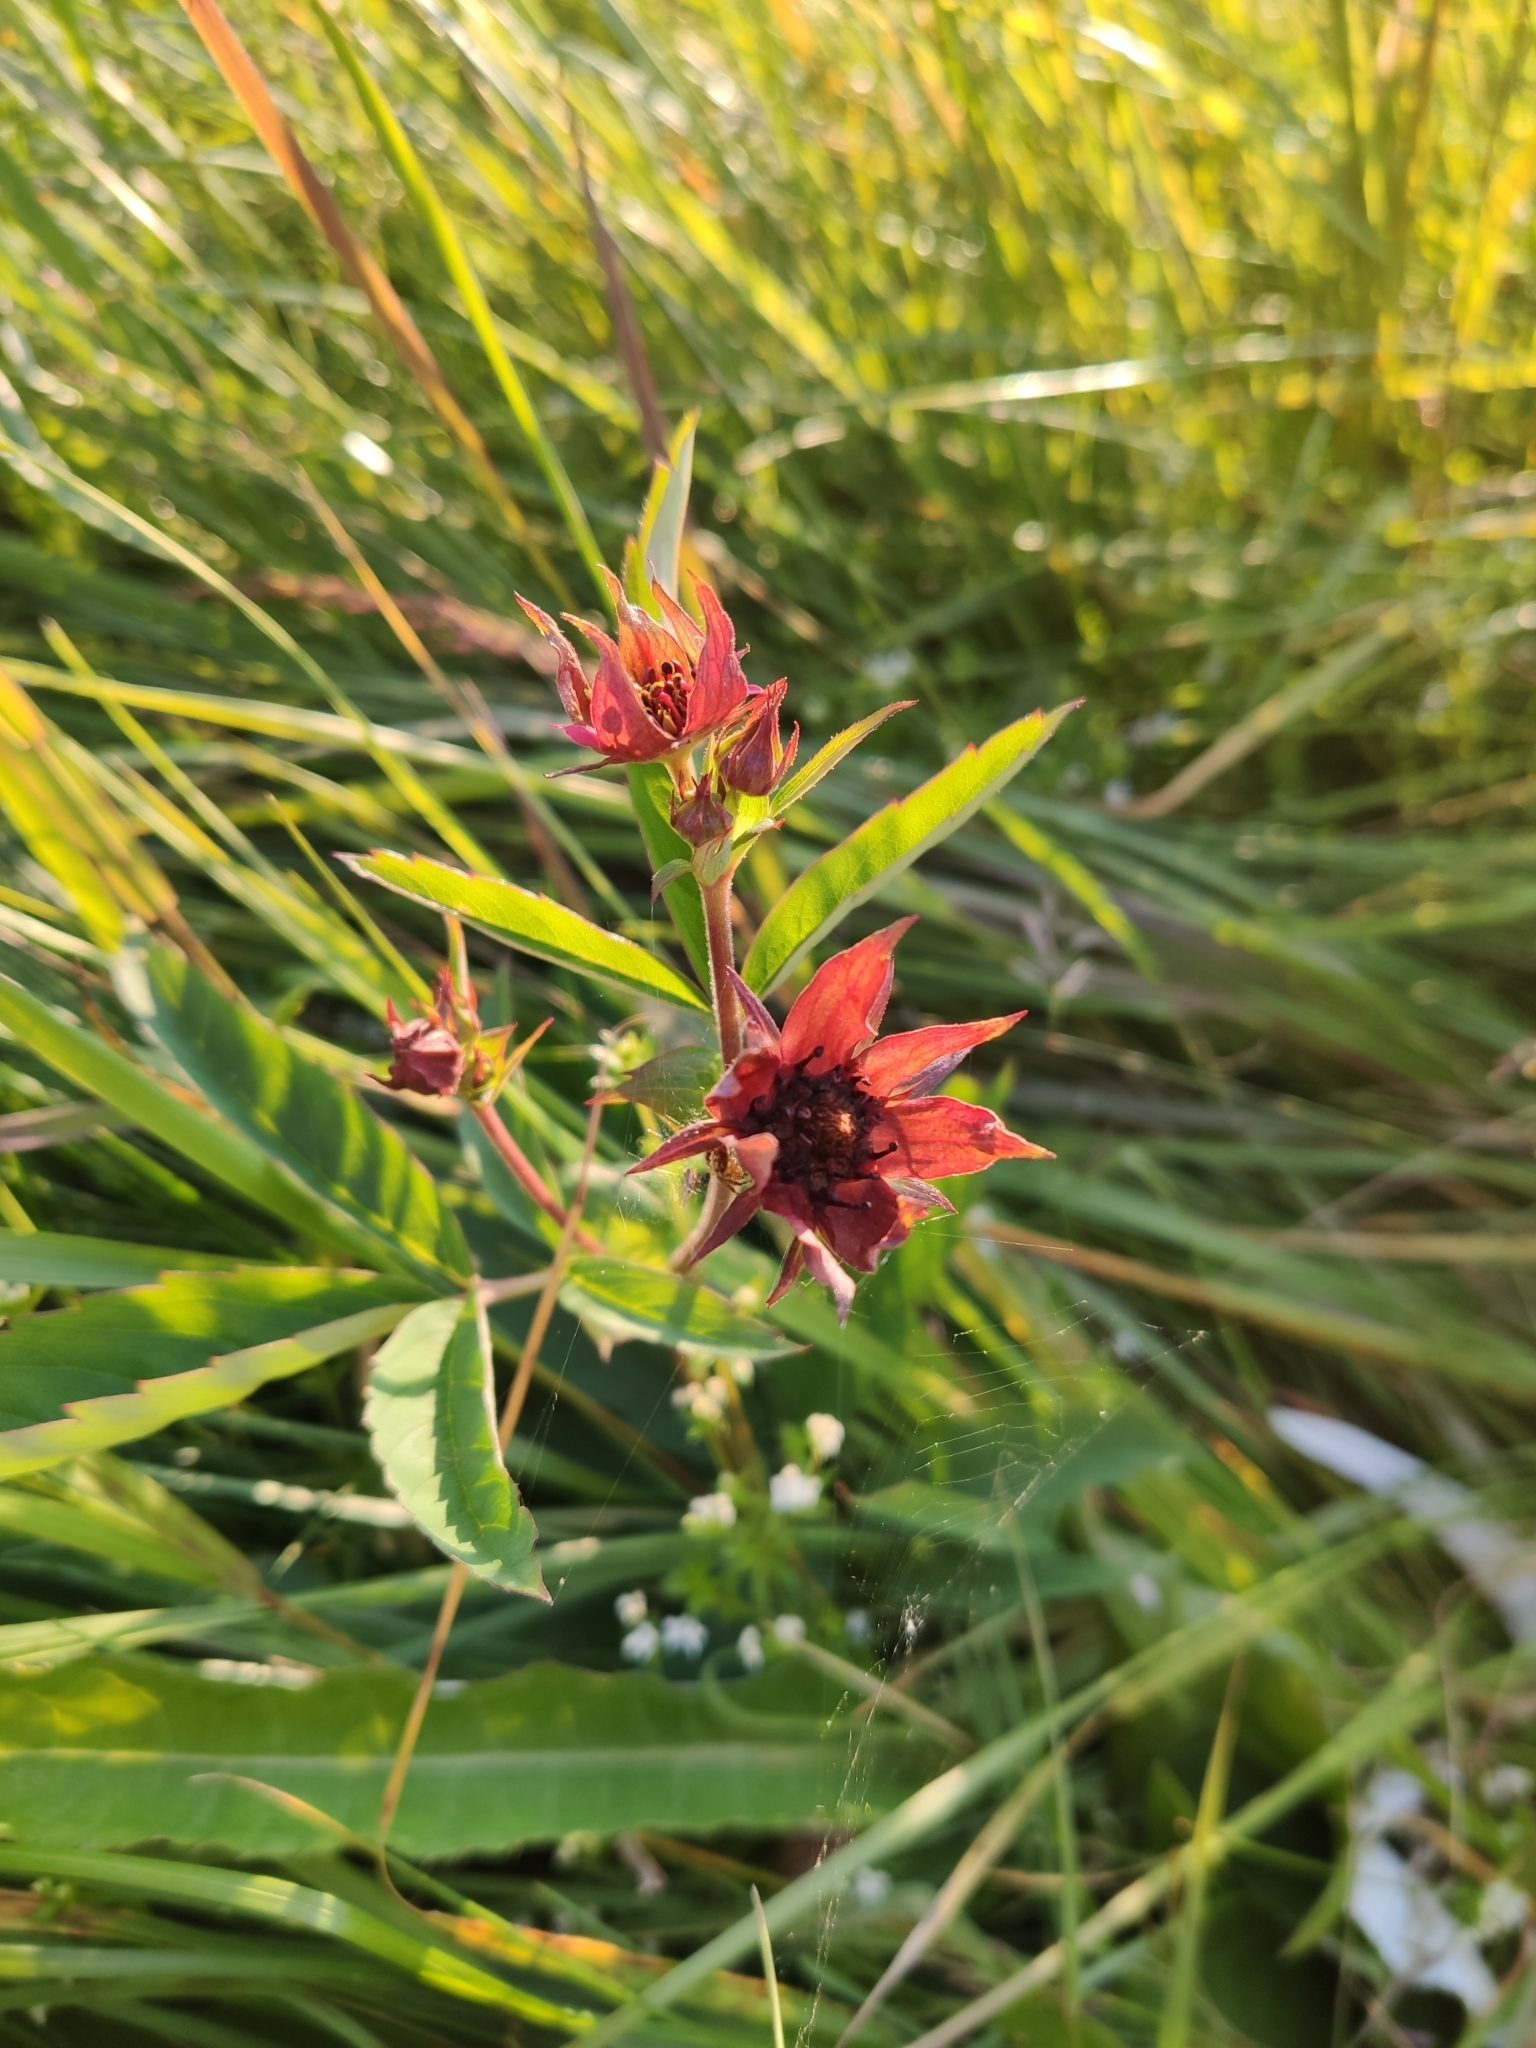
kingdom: Plantae
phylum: Tracheophyta
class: Magnoliopsida
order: Rosales
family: Rosaceae
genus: Comarum
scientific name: Comarum palustre
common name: Marsh cinquefoil
